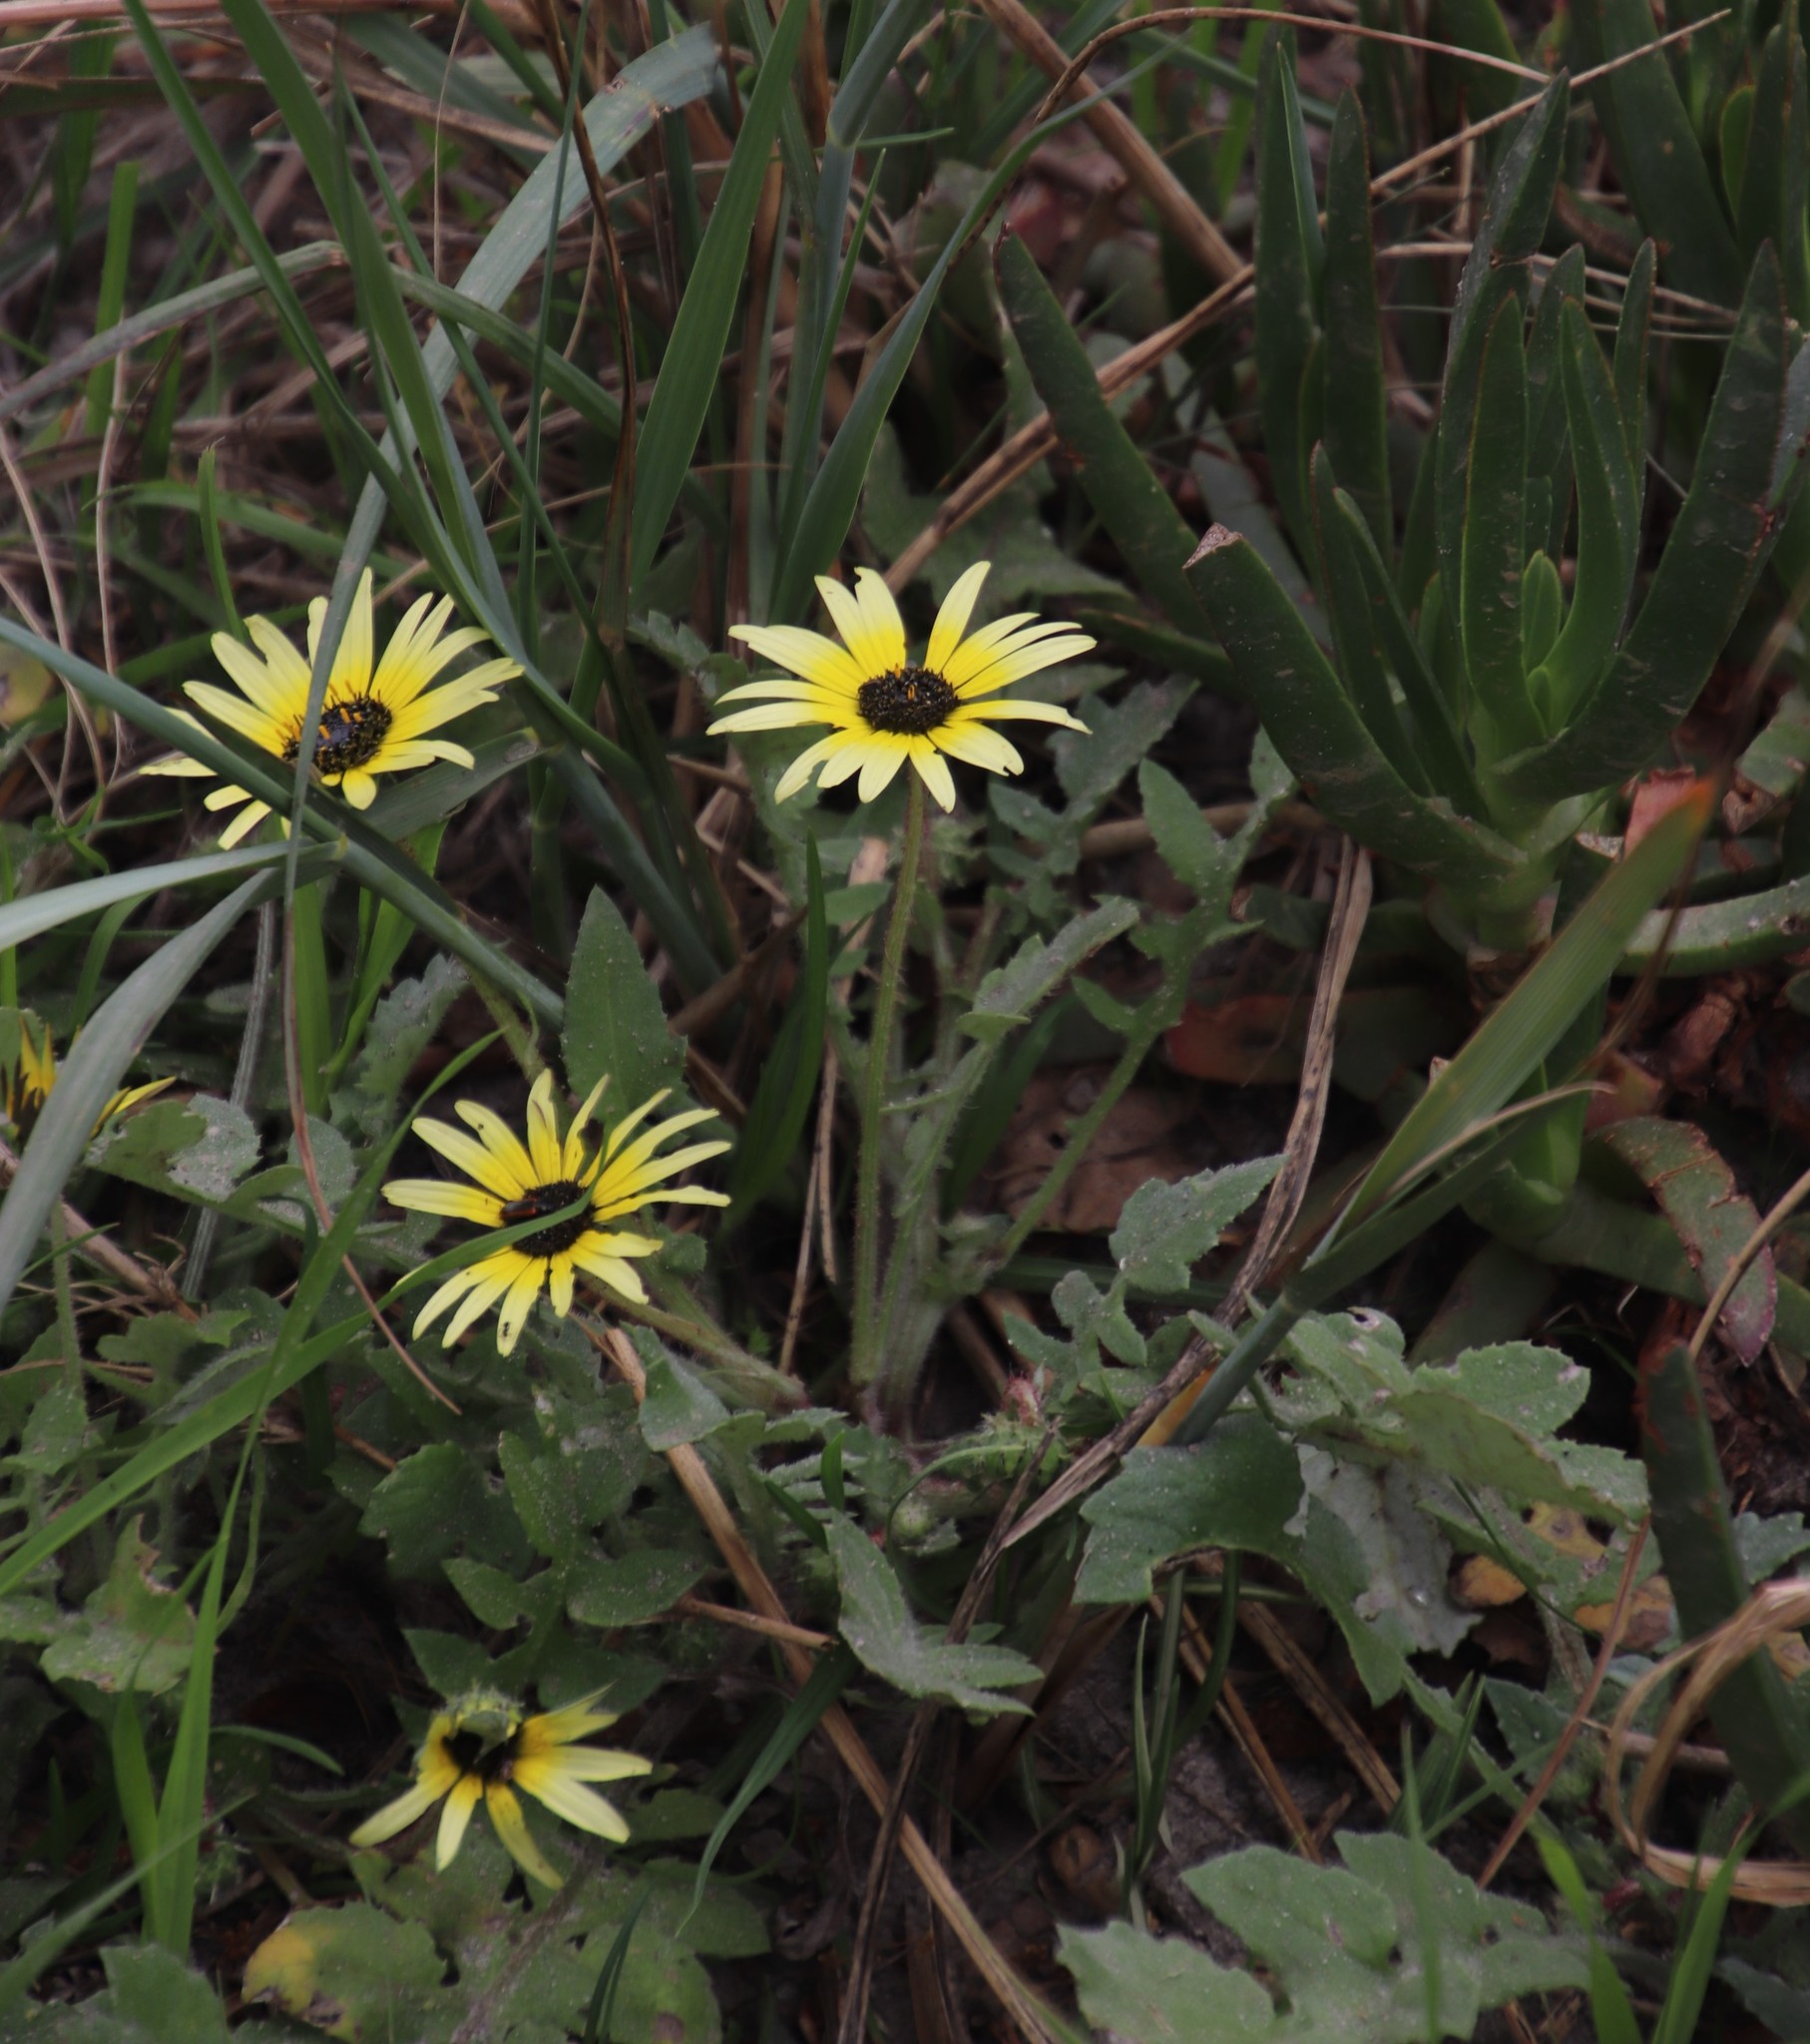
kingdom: Plantae
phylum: Tracheophyta
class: Magnoliopsida
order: Asterales
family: Asteraceae
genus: Arctotheca
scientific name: Arctotheca calendula
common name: Capeweed
